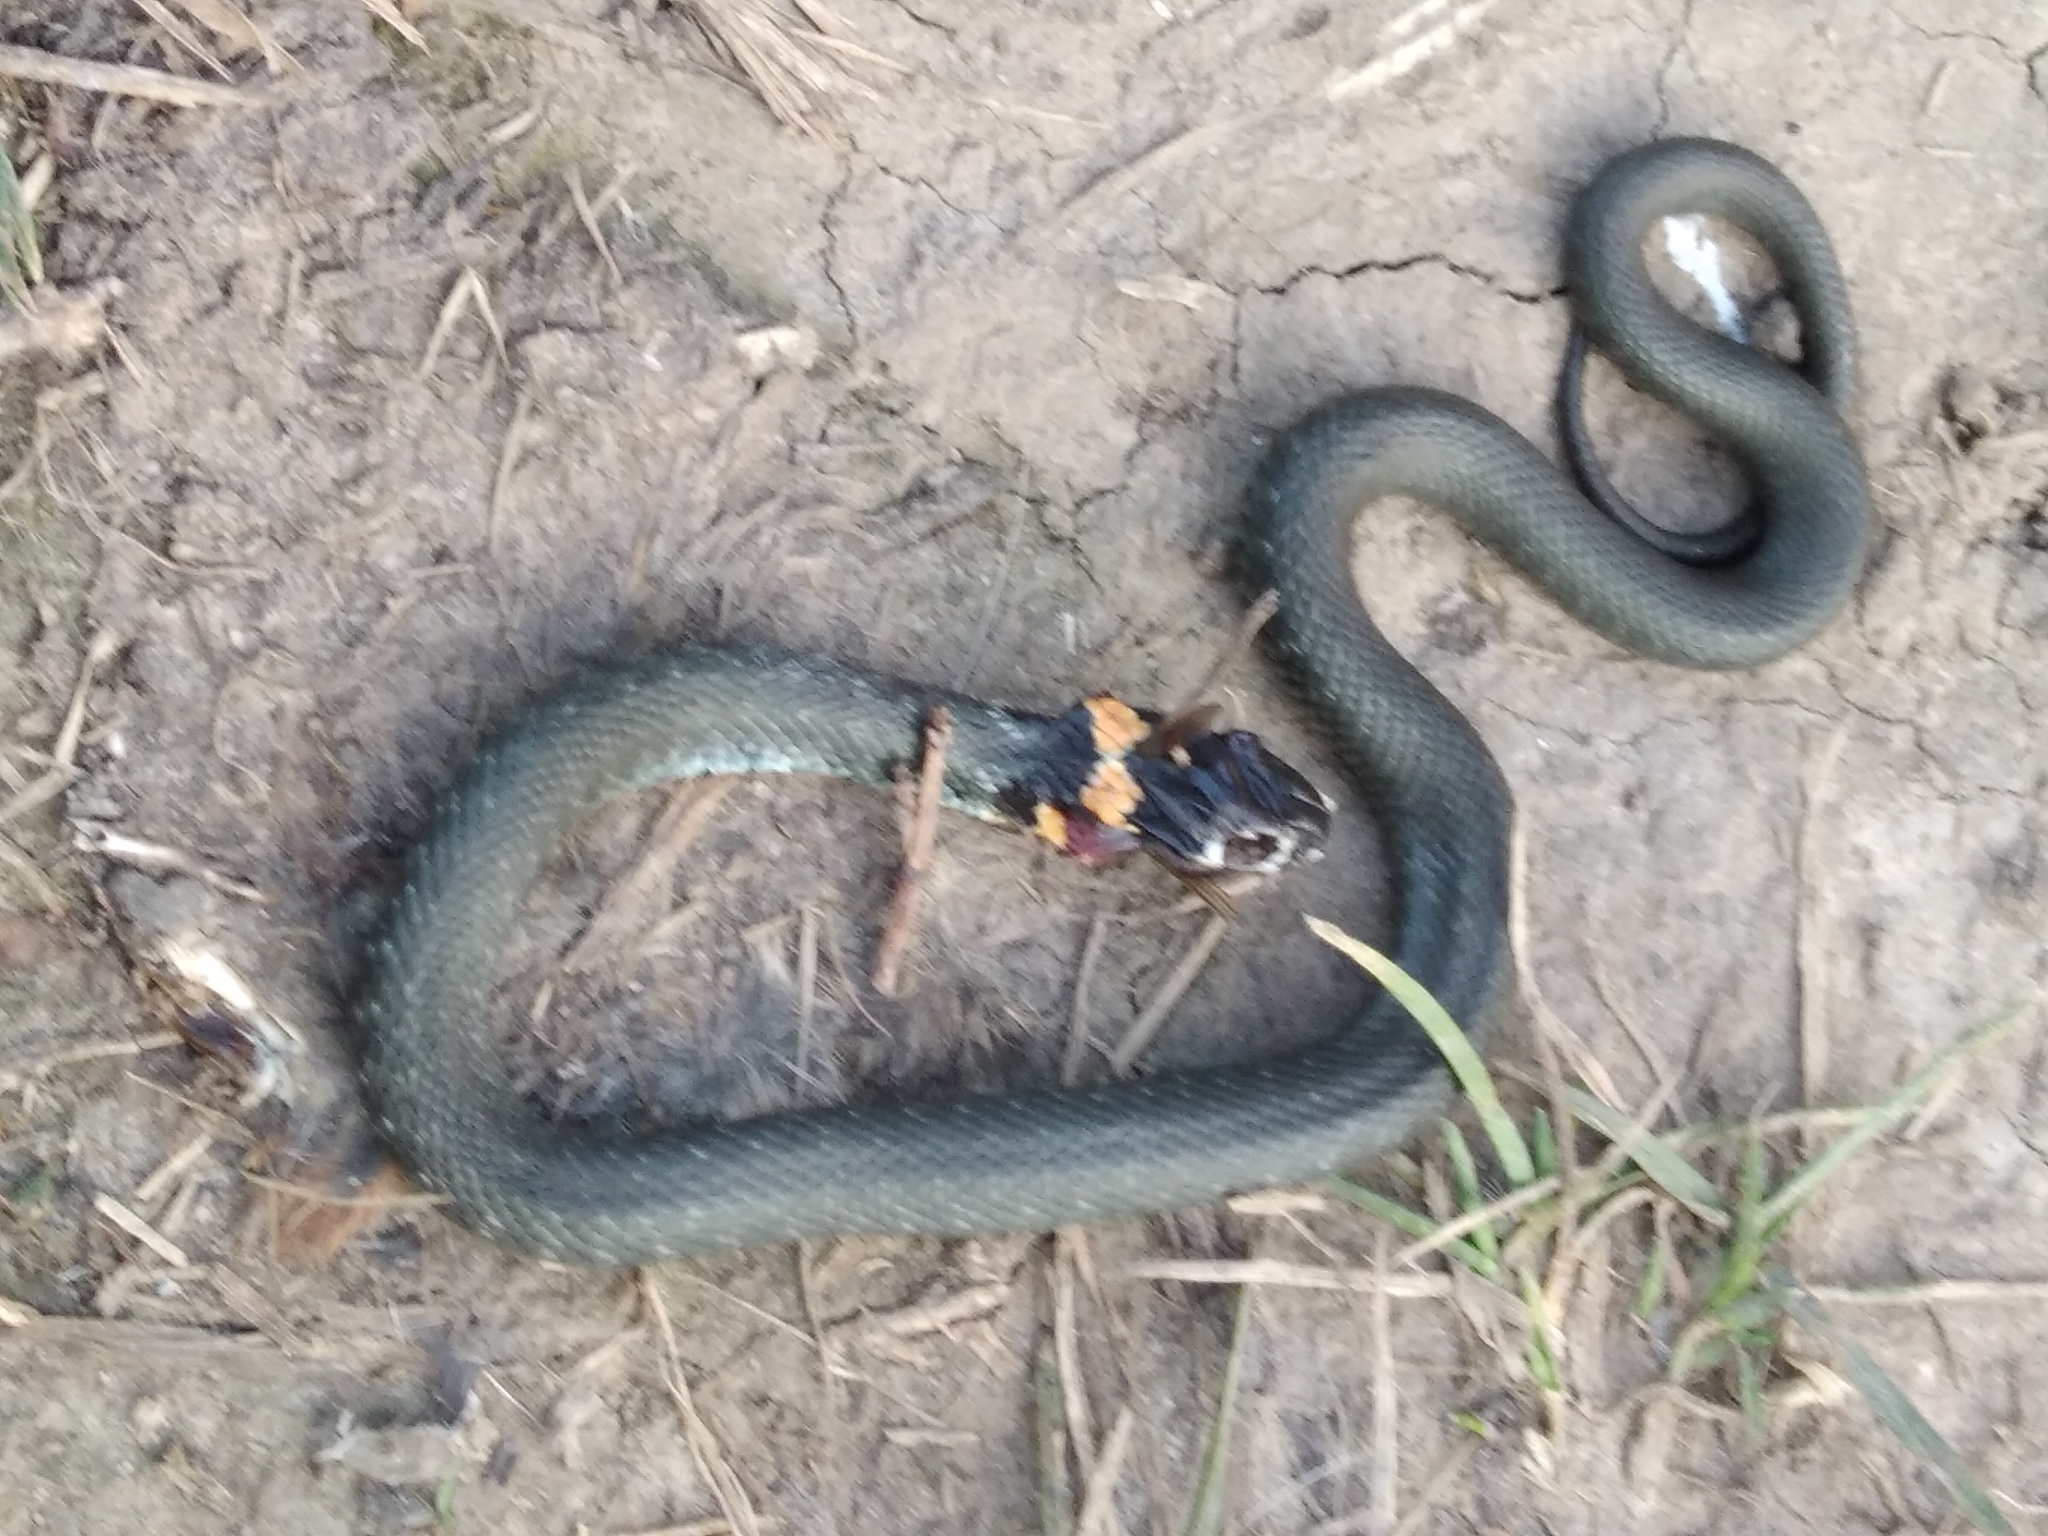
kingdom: Animalia
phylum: Chordata
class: Squamata
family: Colubridae
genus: Natrix
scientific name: Natrix natrix
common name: Grass snake
